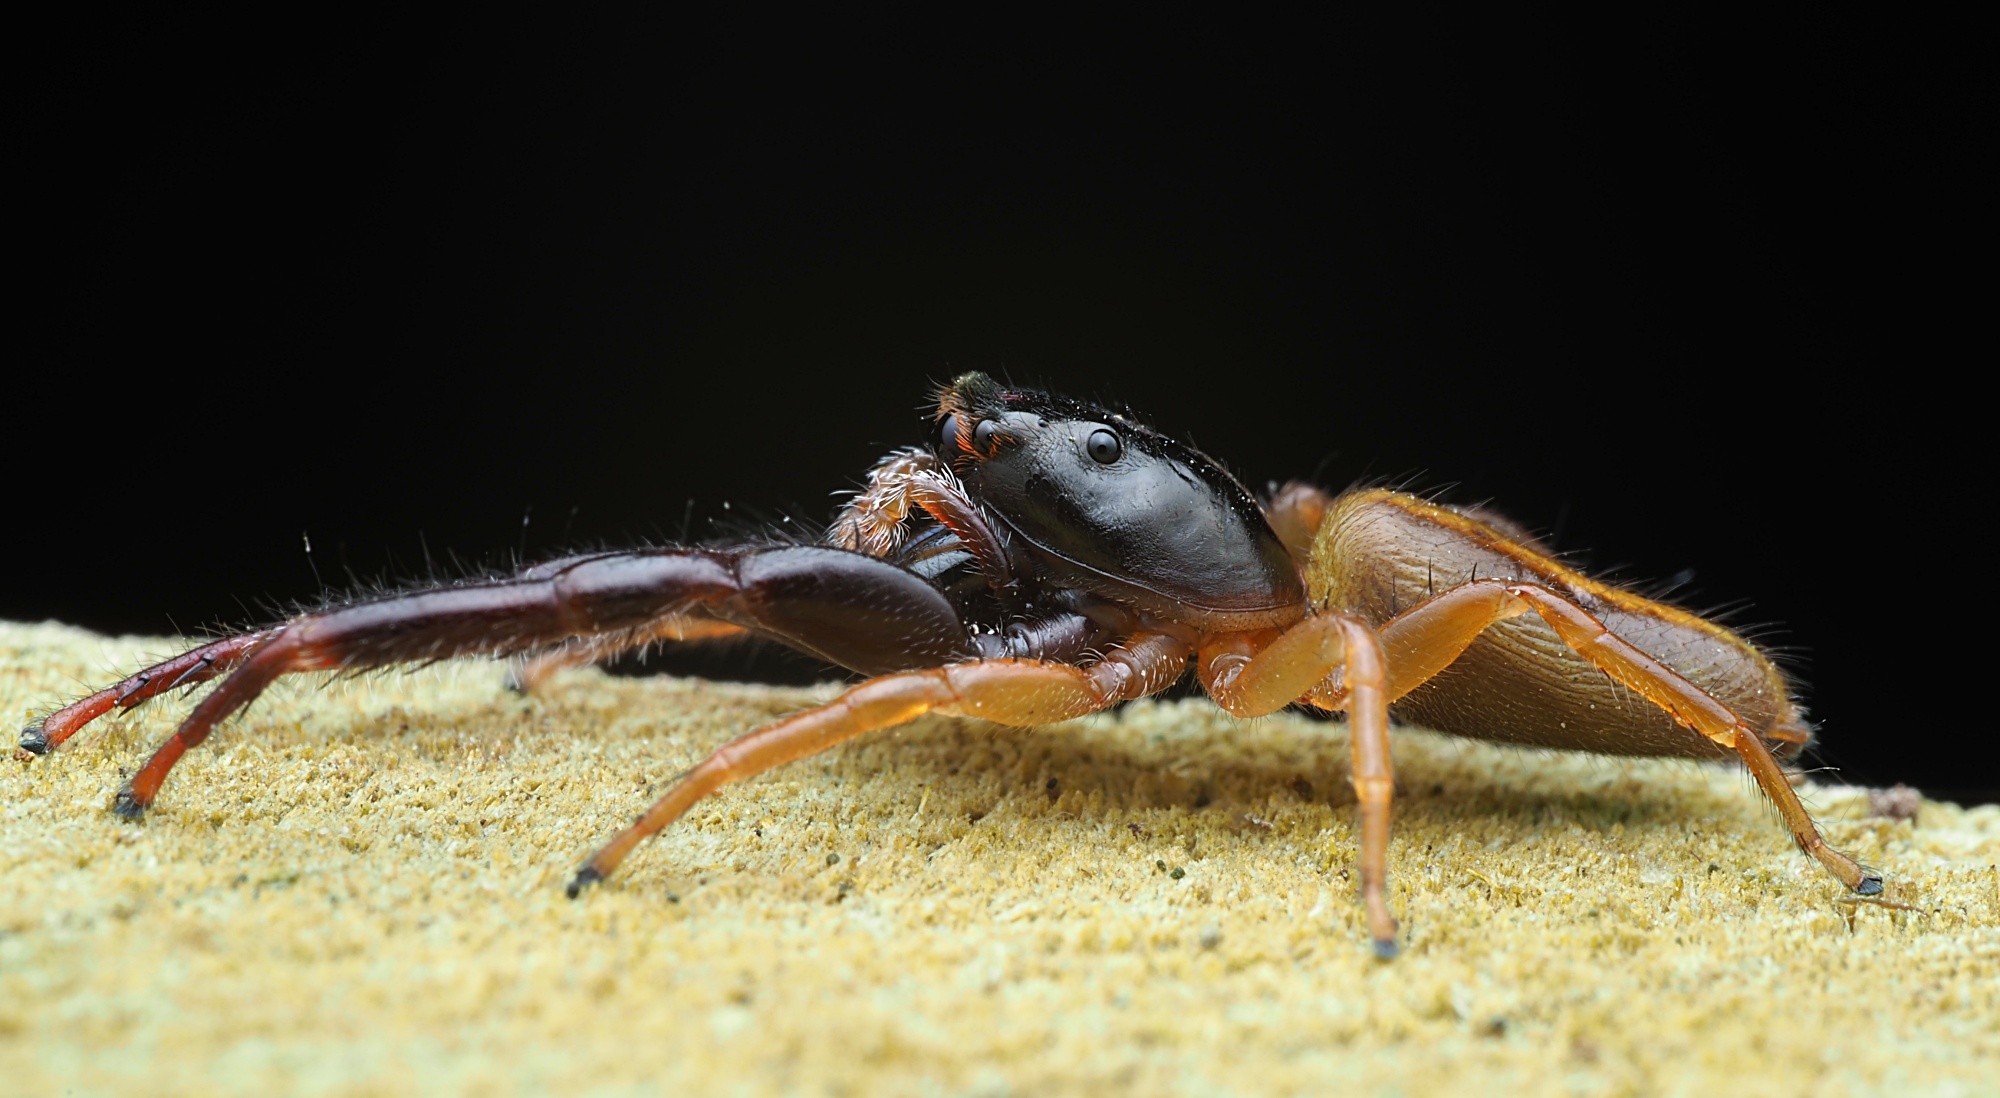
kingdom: Animalia
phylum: Arthropoda
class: Arachnida
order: Araneae
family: Salticidae
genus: Trite
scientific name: Trite planiceps
